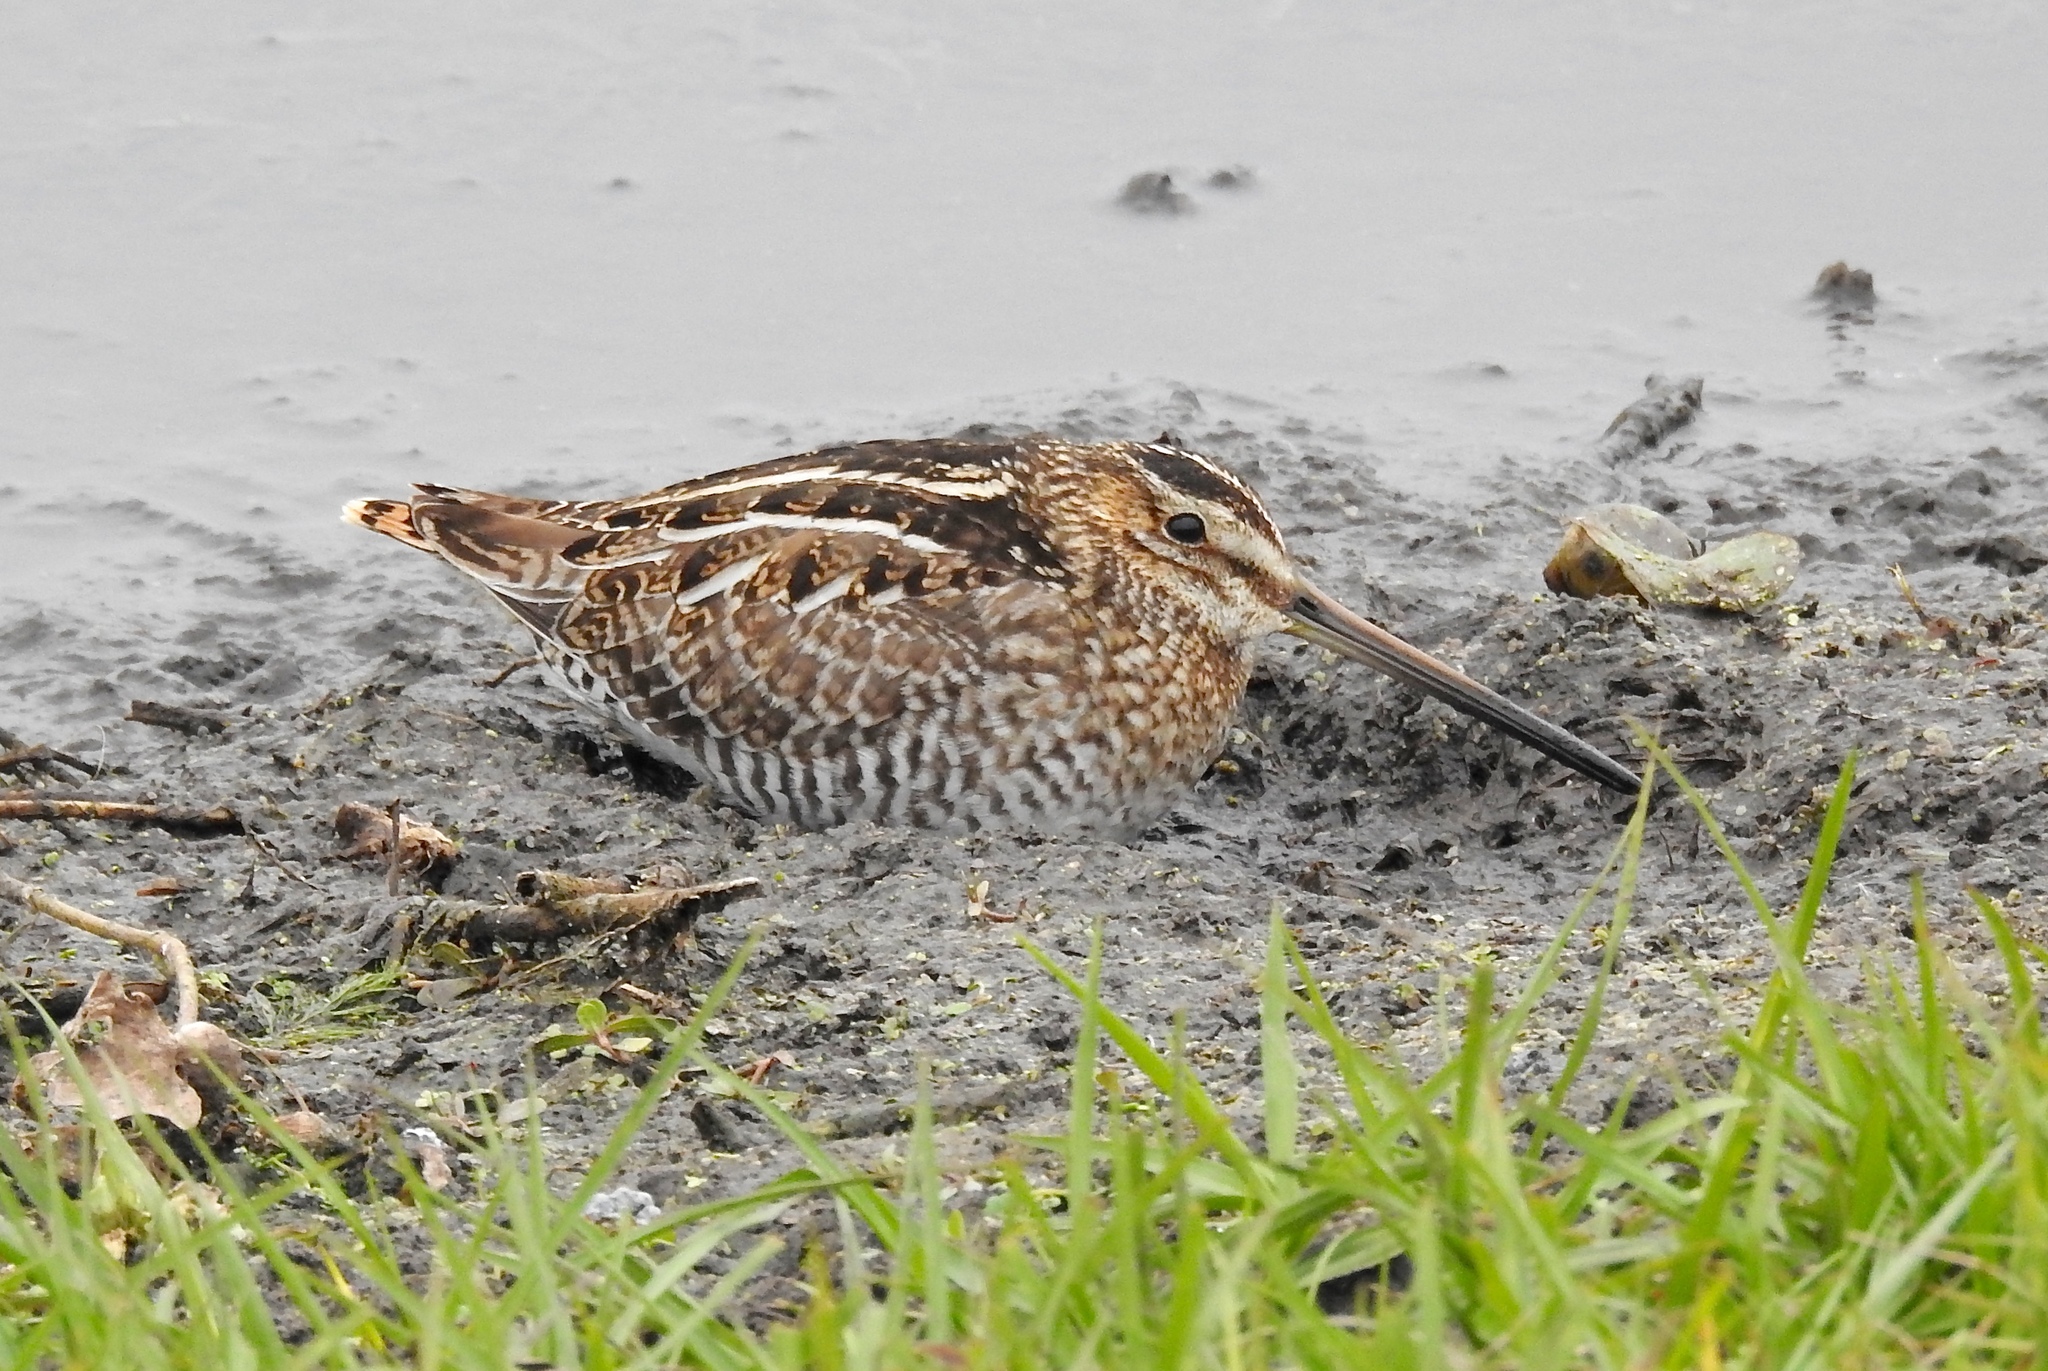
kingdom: Animalia
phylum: Chordata
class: Aves
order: Charadriiformes
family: Scolopacidae
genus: Gallinago
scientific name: Gallinago delicata
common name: Wilson's snipe
